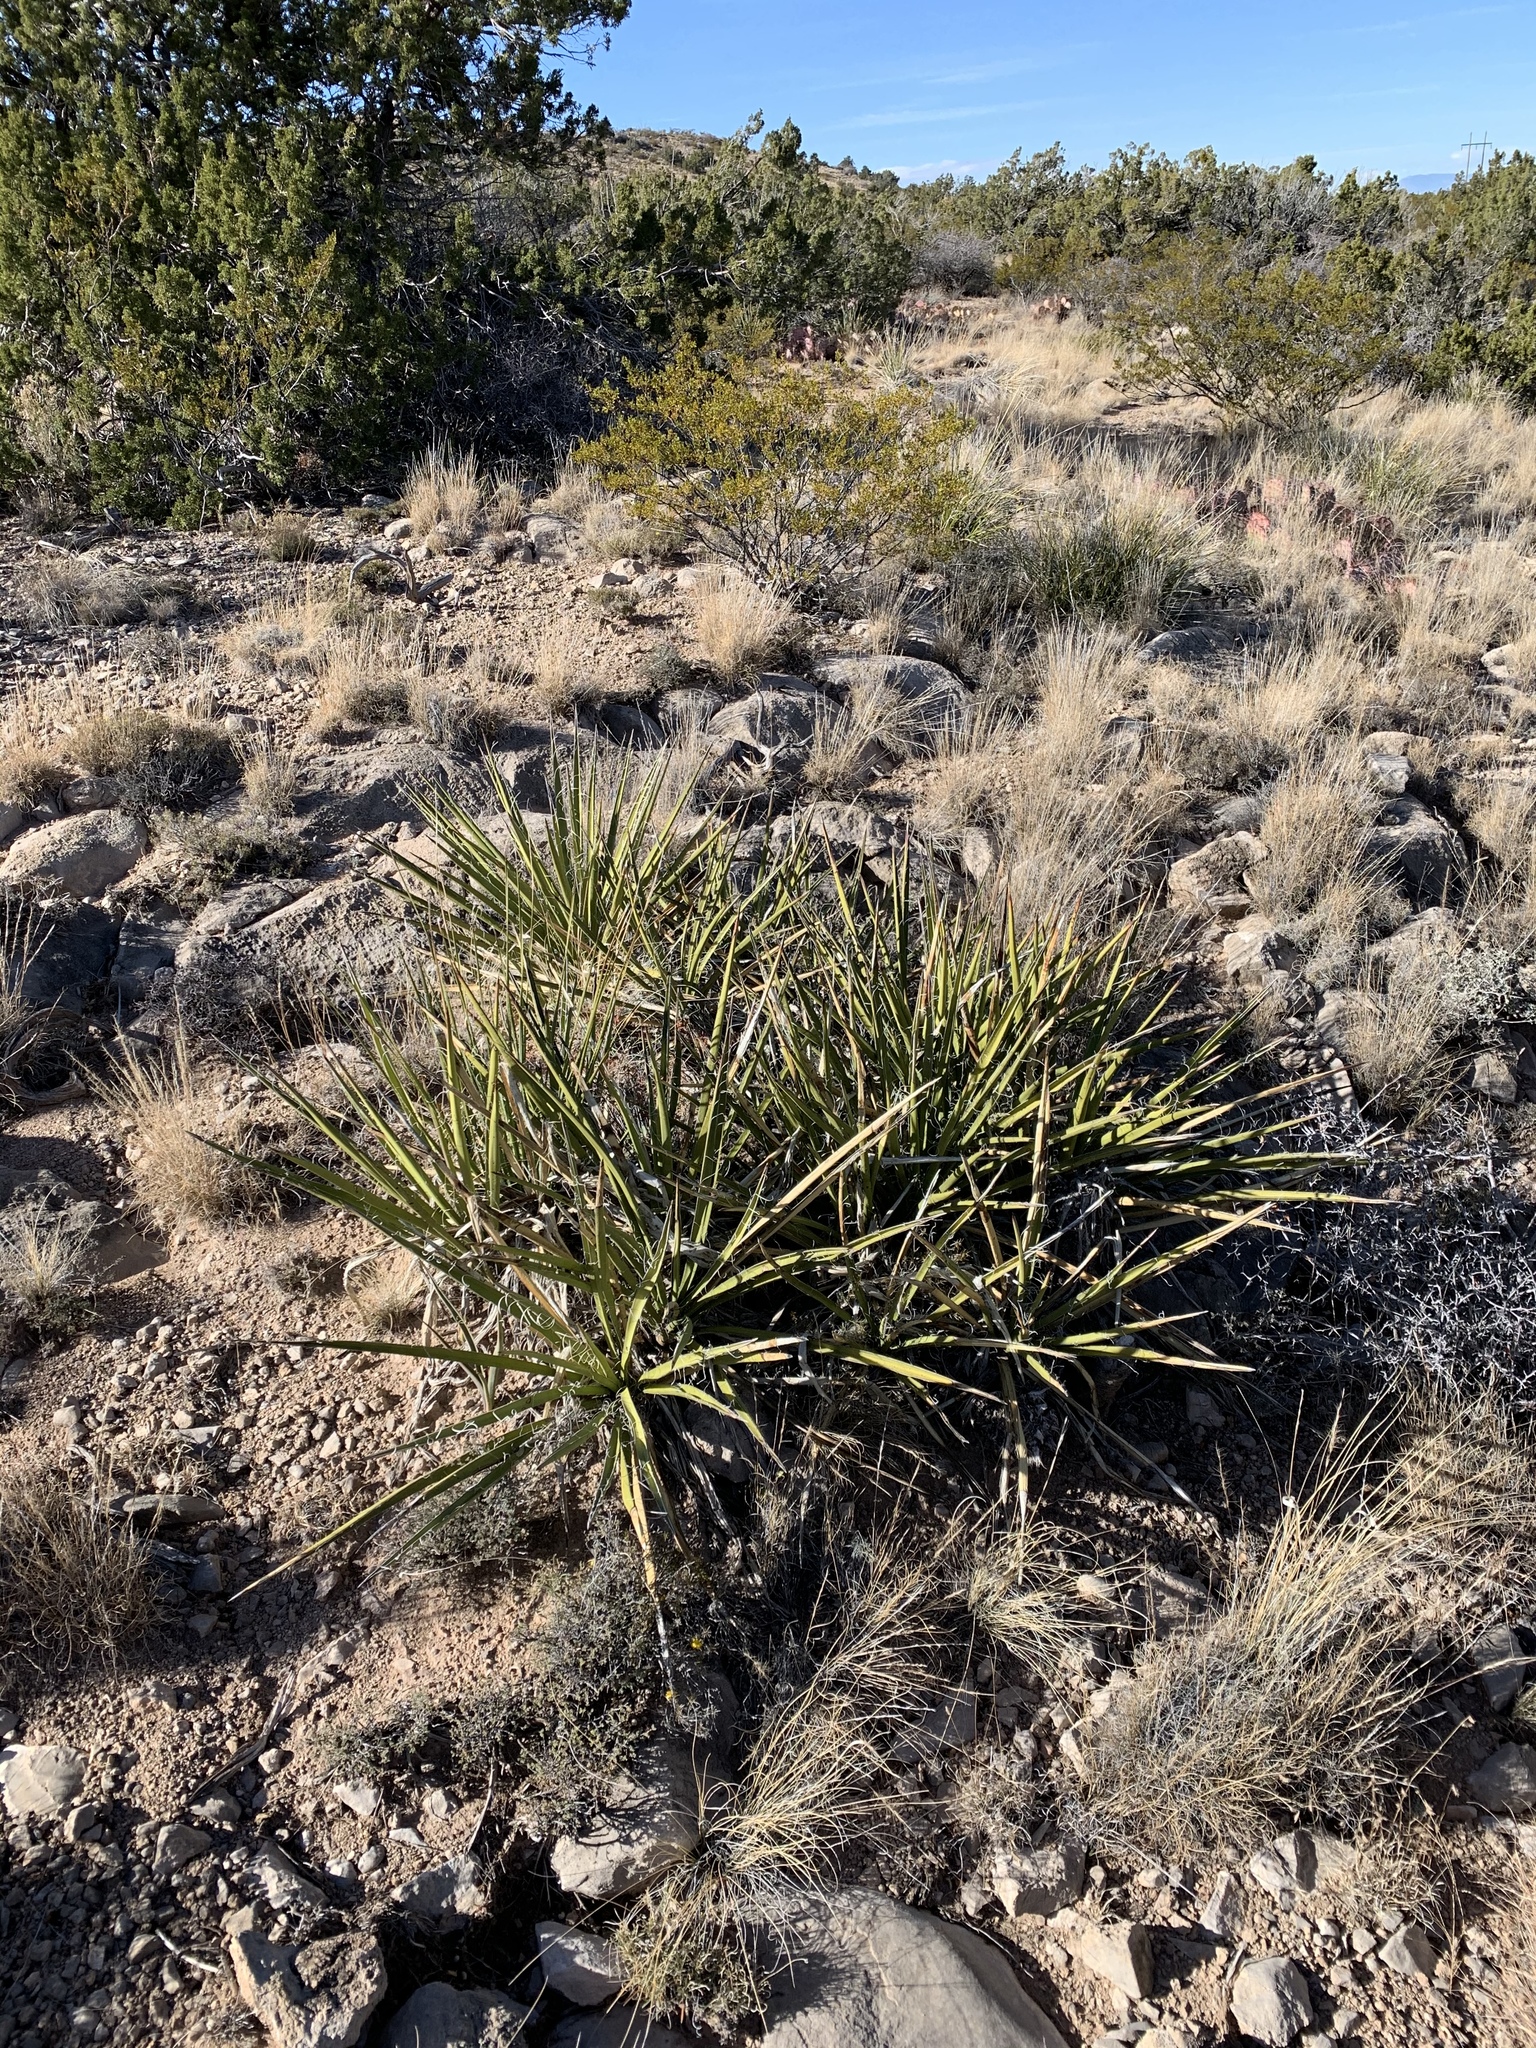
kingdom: Plantae
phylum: Tracheophyta
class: Liliopsida
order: Asparagales
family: Asparagaceae
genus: Yucca
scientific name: Yucca baccata
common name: Banana yucca
